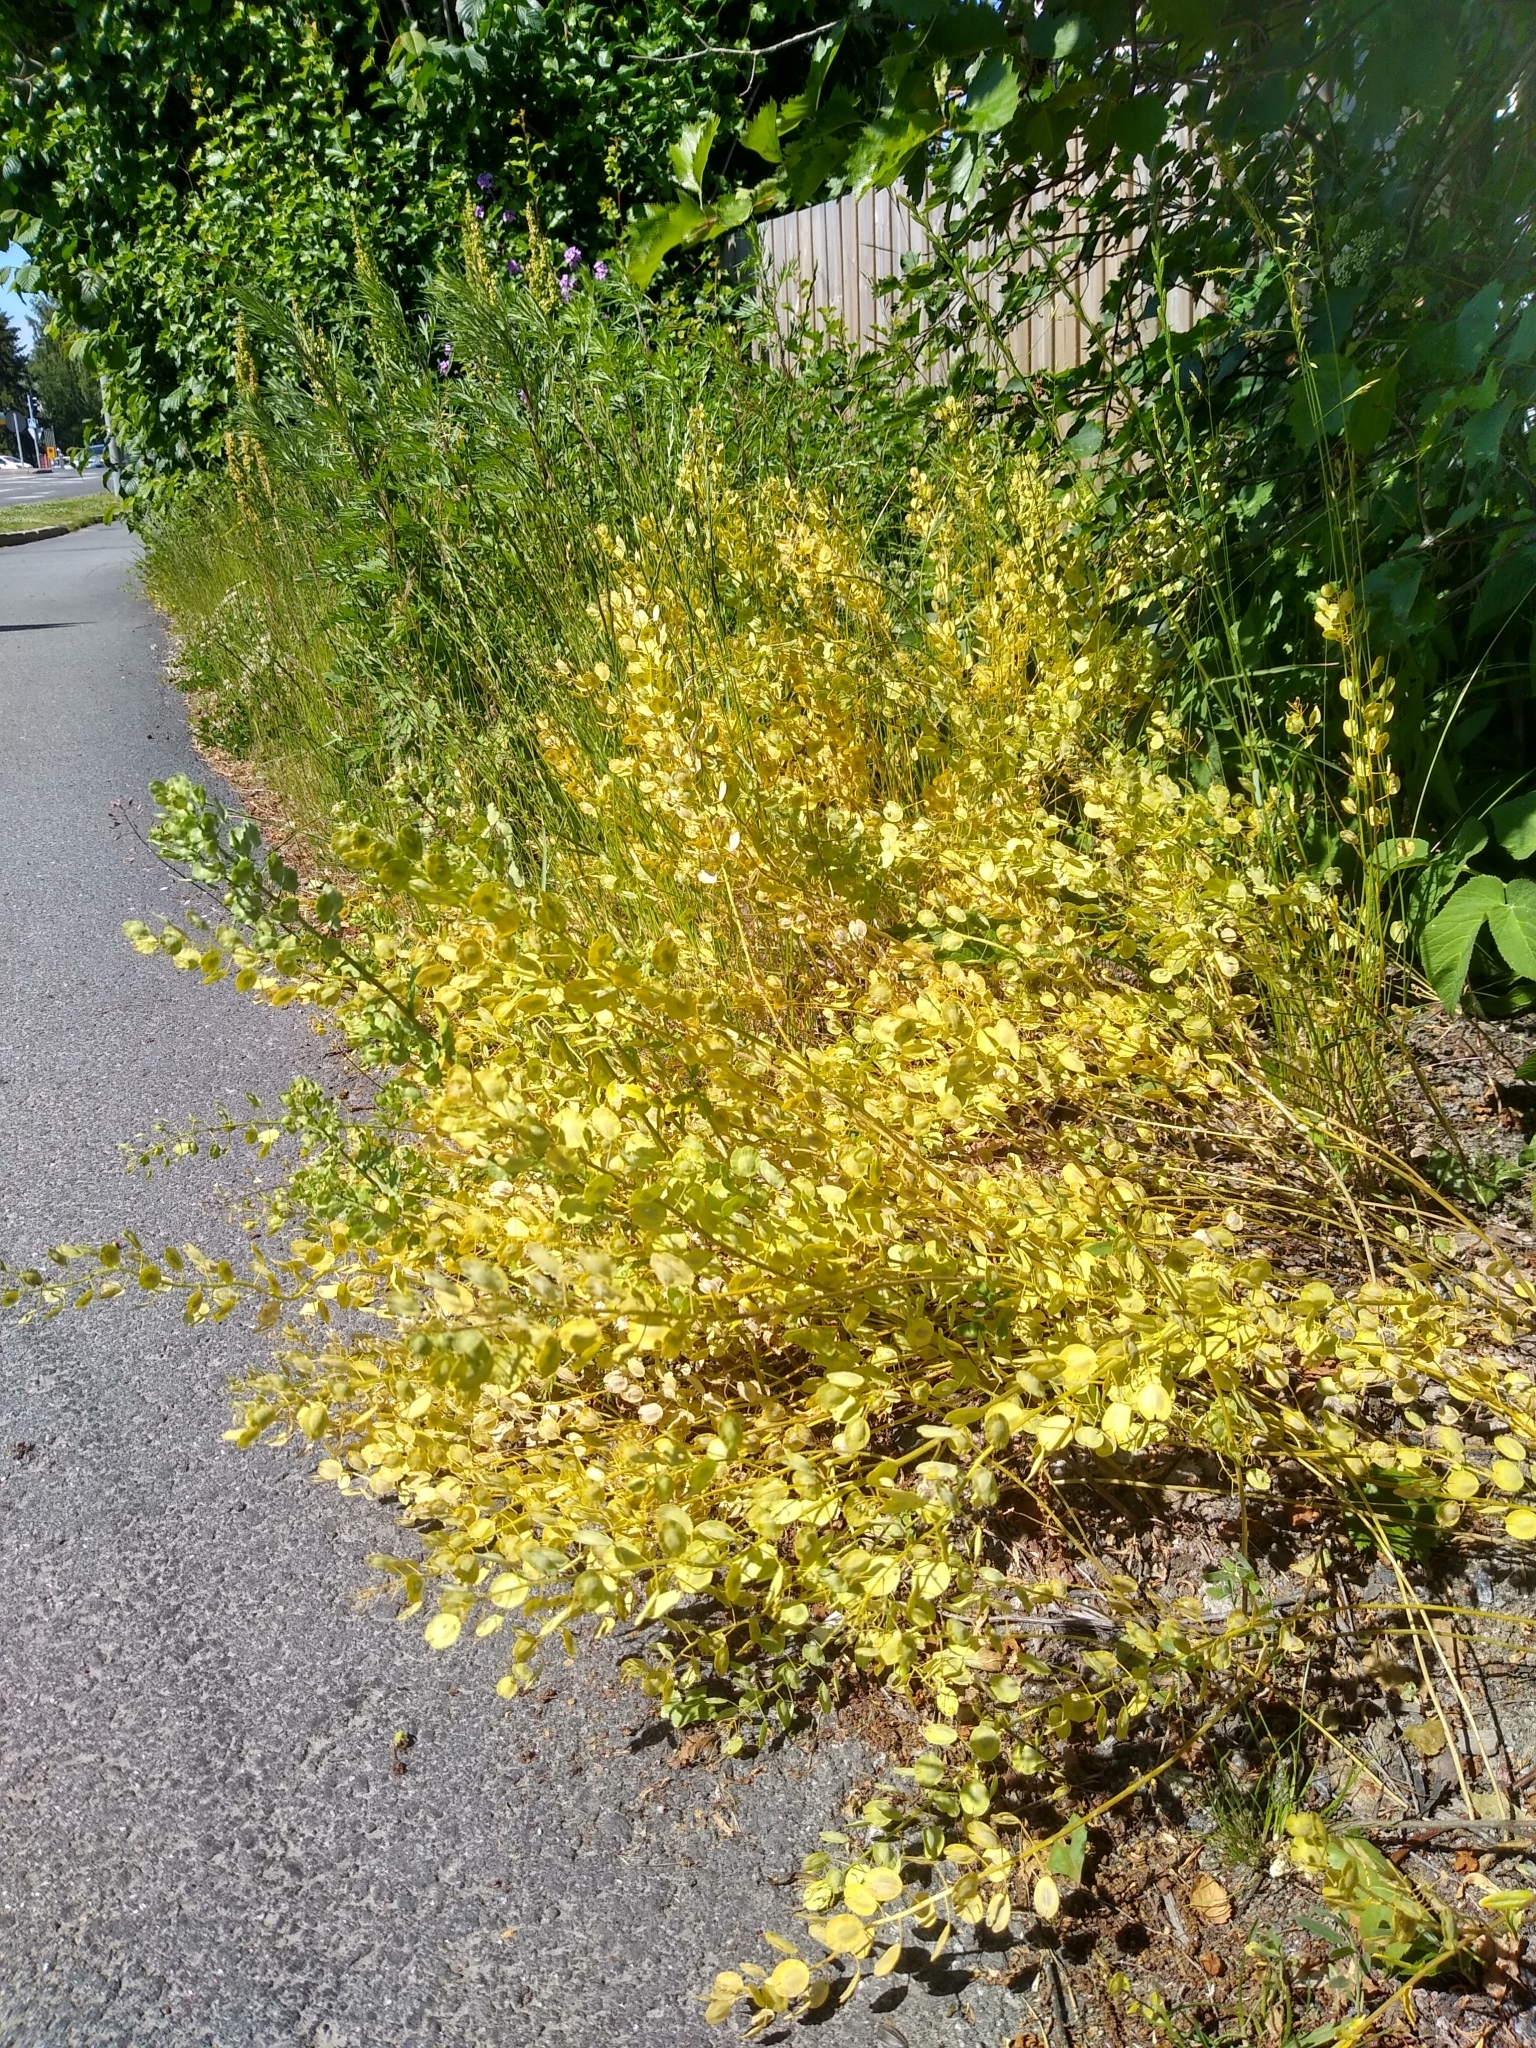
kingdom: Plantae
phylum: Tracheophyta
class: Magnoliopsida
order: Brassicales
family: Brassicaceae
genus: Thlaspi
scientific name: Thlaspi arvense
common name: Field pennycress
